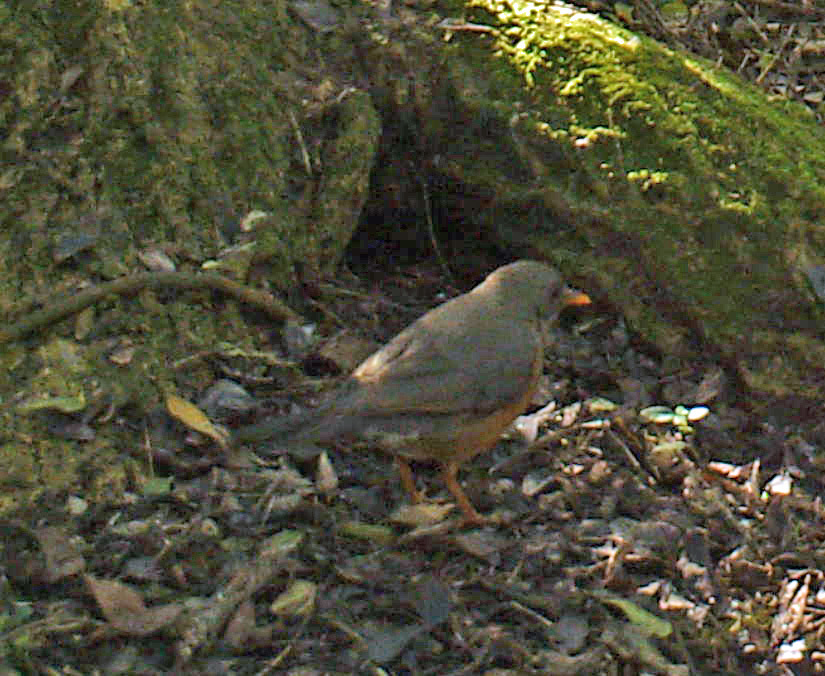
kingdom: Animalia
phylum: Chordata
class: Aves
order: Passeriformes
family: Turdidae
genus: Turdus
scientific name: Turdus olivaceus
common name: Olive thrush
